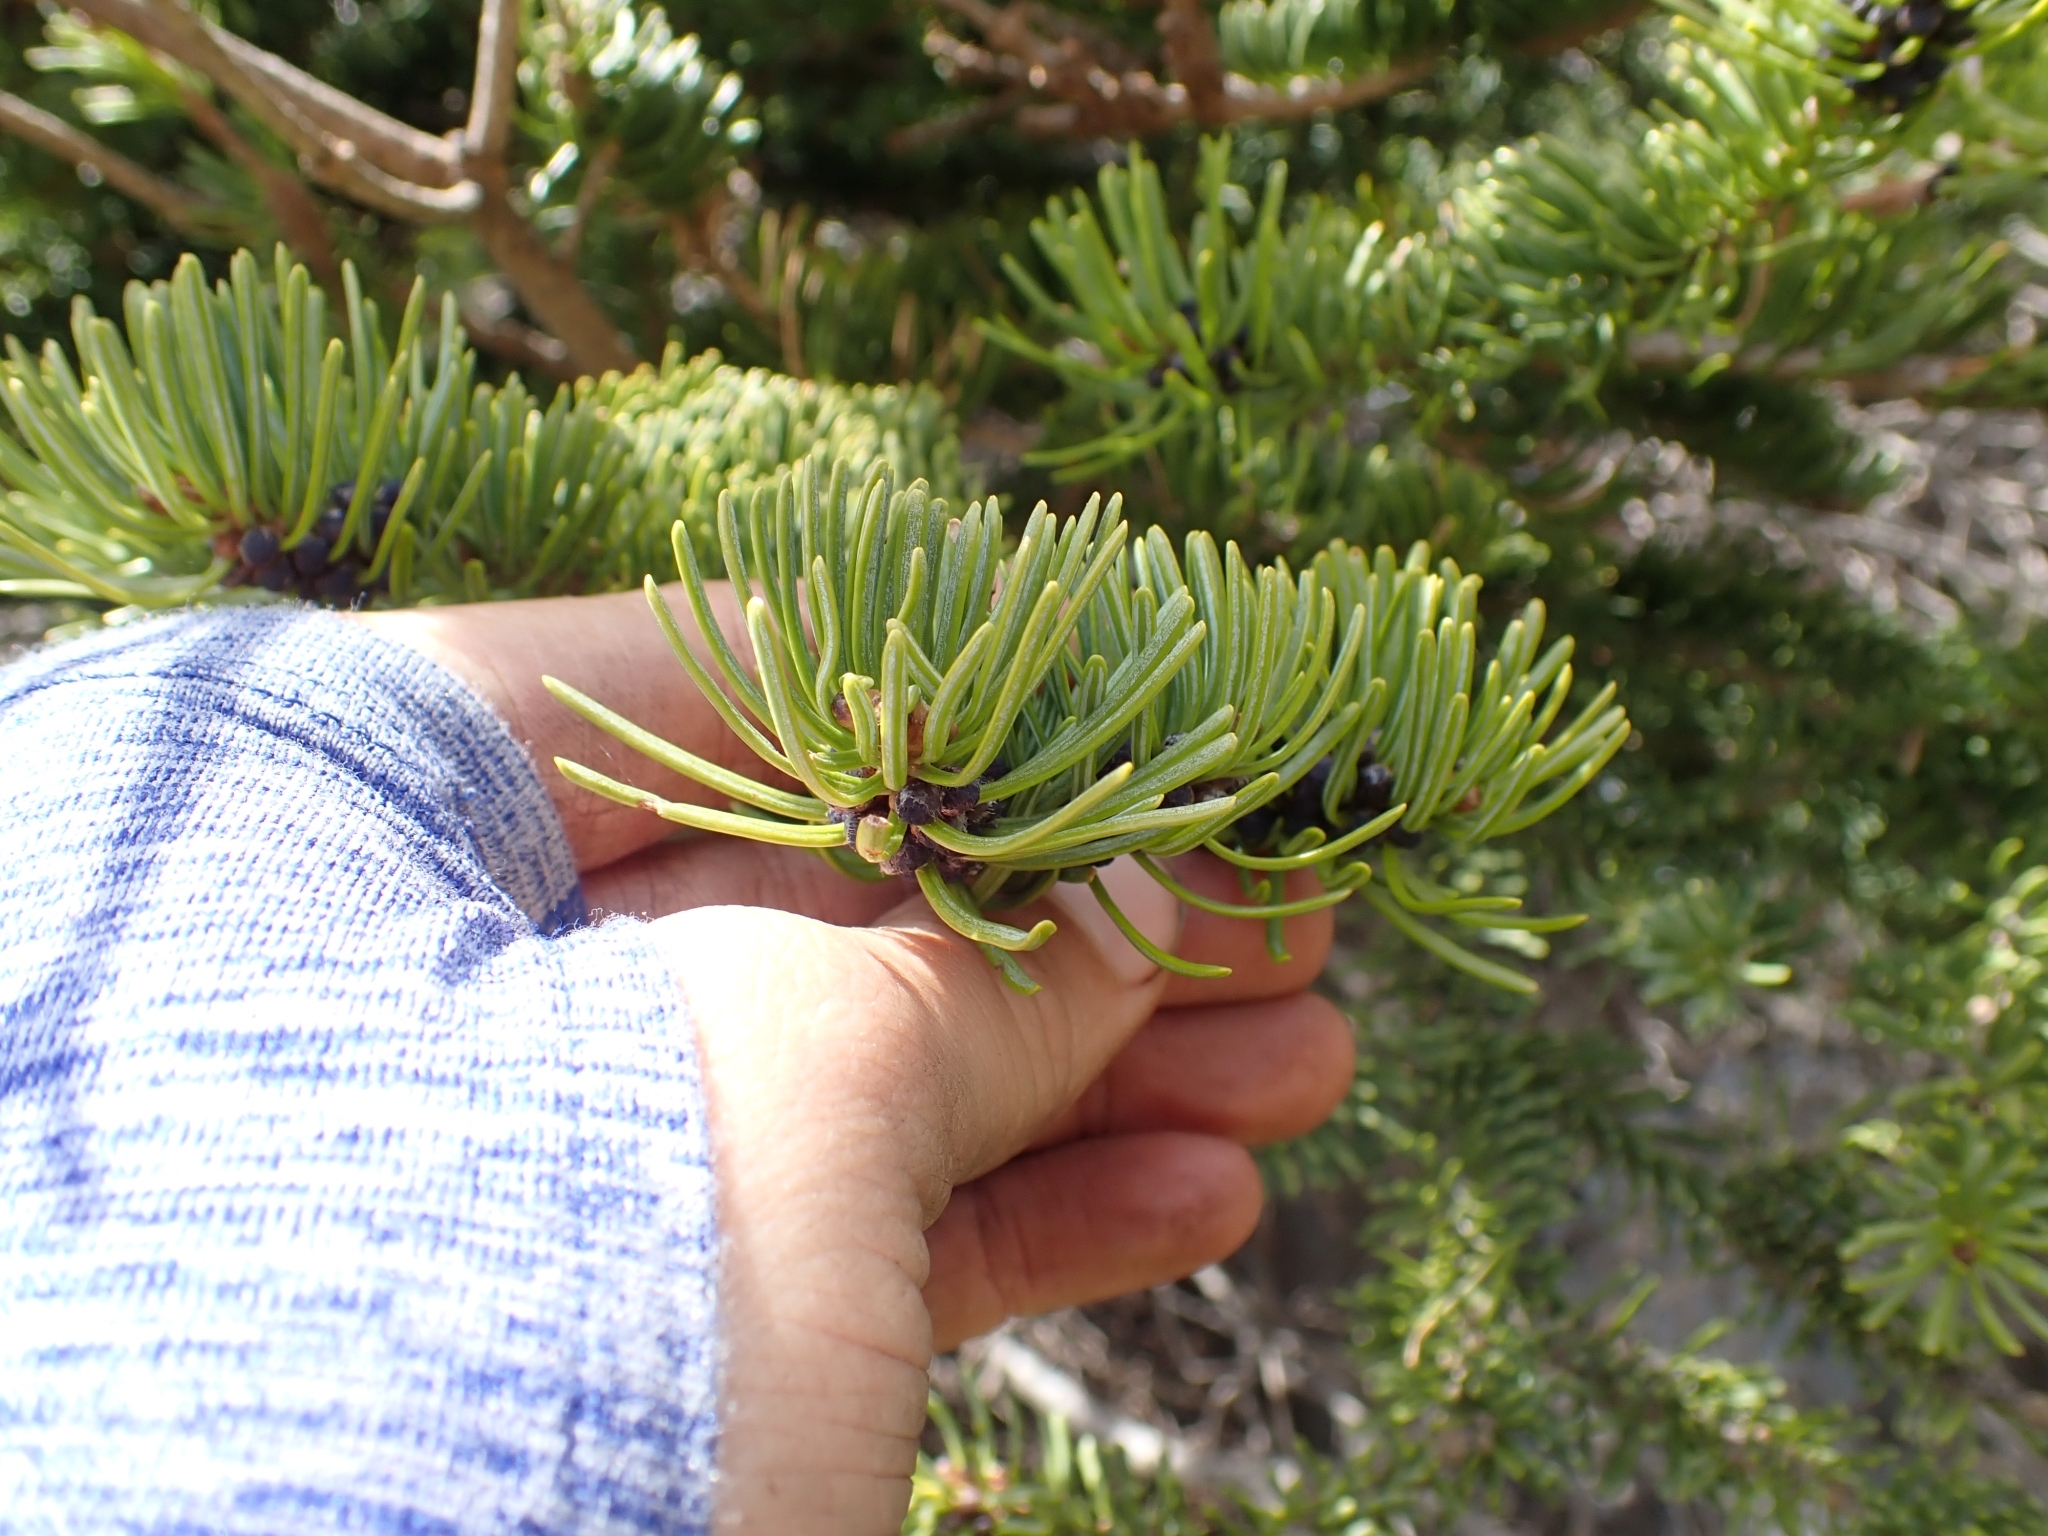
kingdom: Plantae
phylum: Tracheophyta
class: Pinopsida
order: Pinales
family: Pinaceae
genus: Abies
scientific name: Abies lasiocarpa
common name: Subalpine fir
